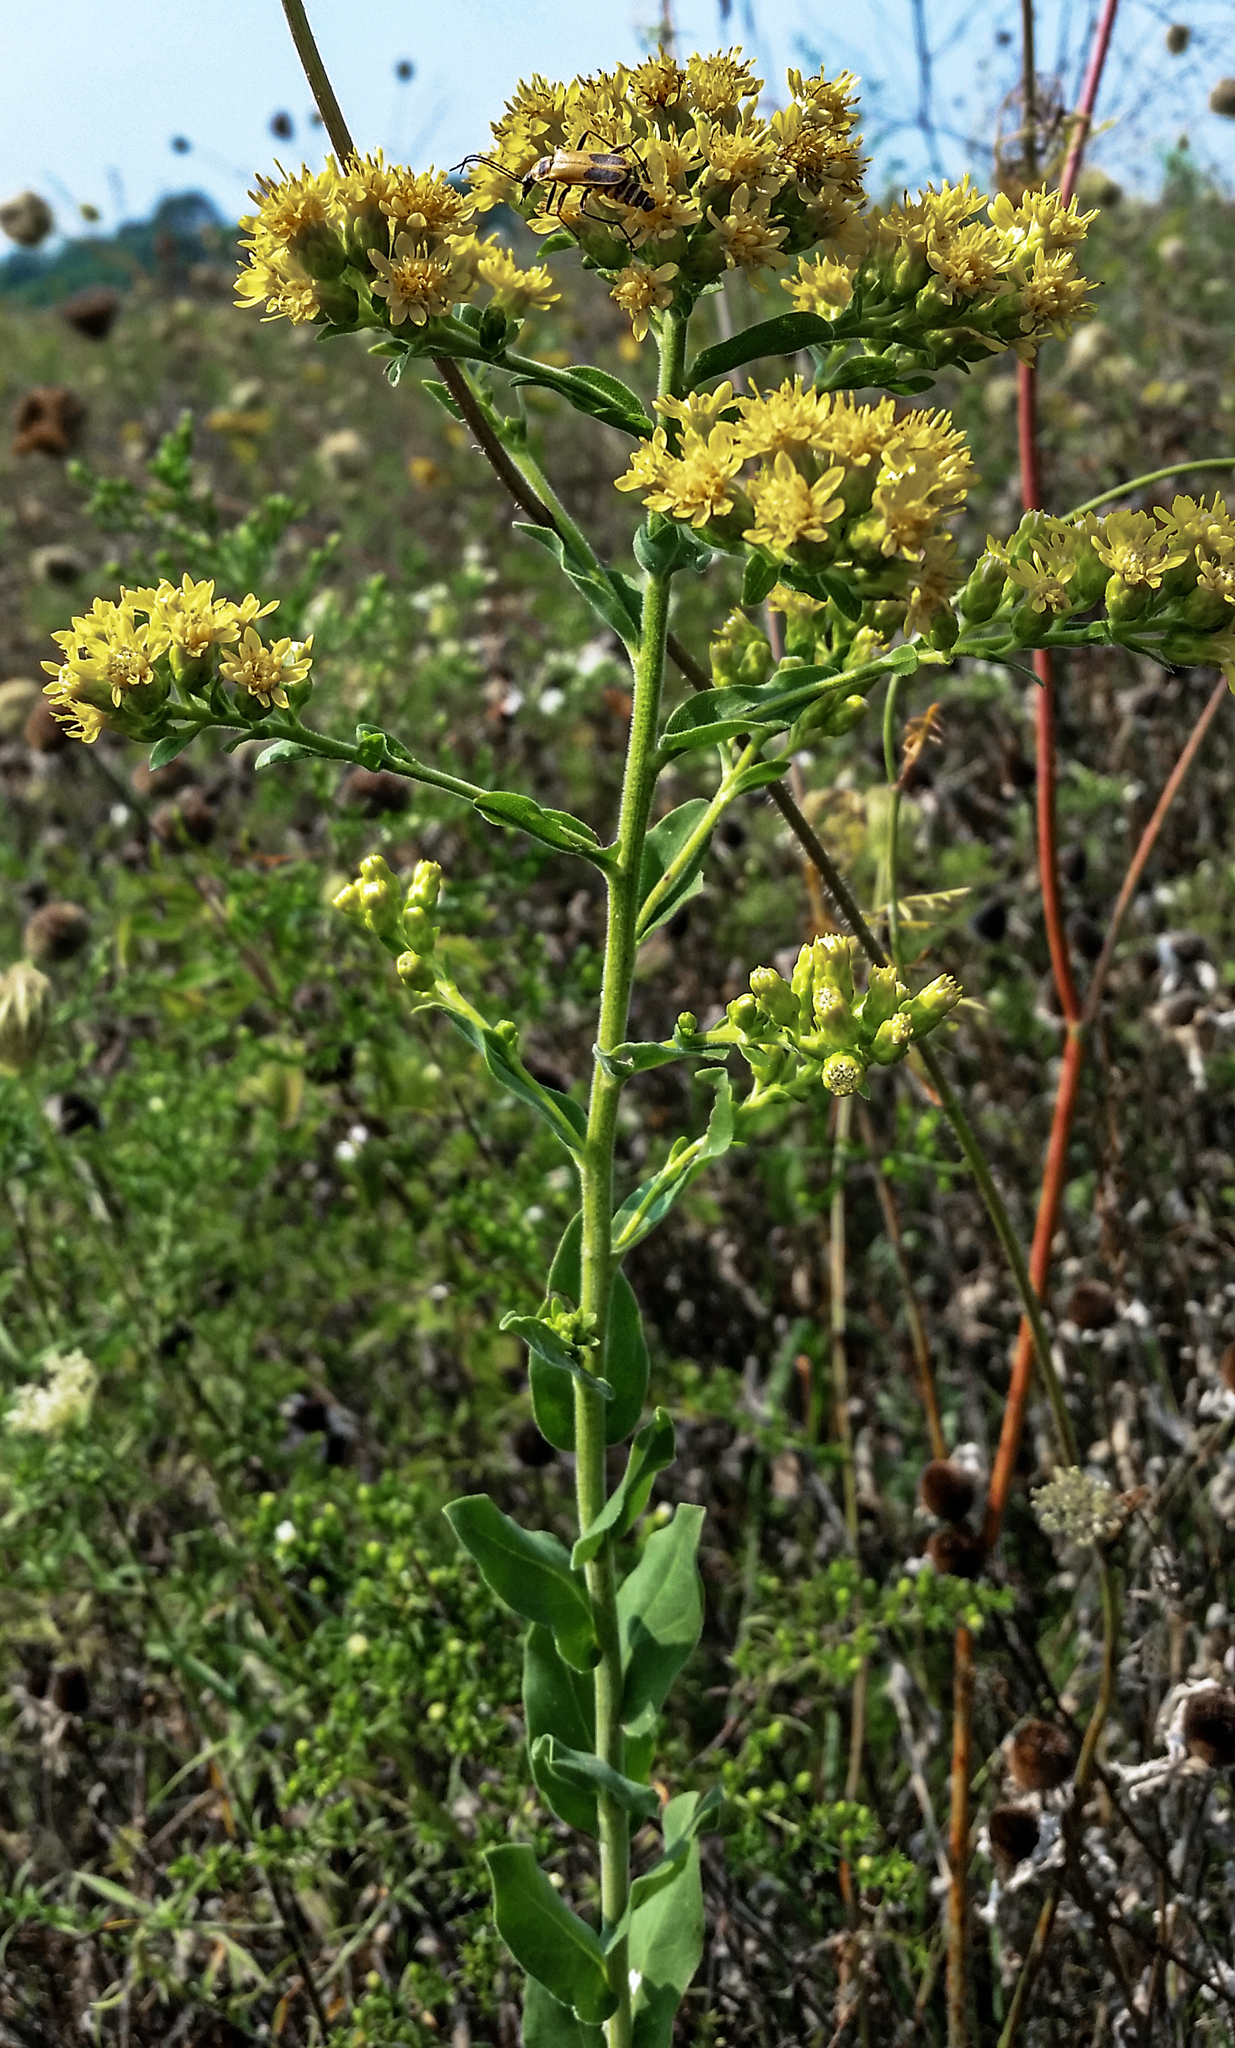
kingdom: Plantae
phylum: Tracheophyta
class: Magnoliopsida
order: Asterales
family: Asteraceae
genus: Solidago
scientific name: Solidago rigida
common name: Rigid goldenrod
